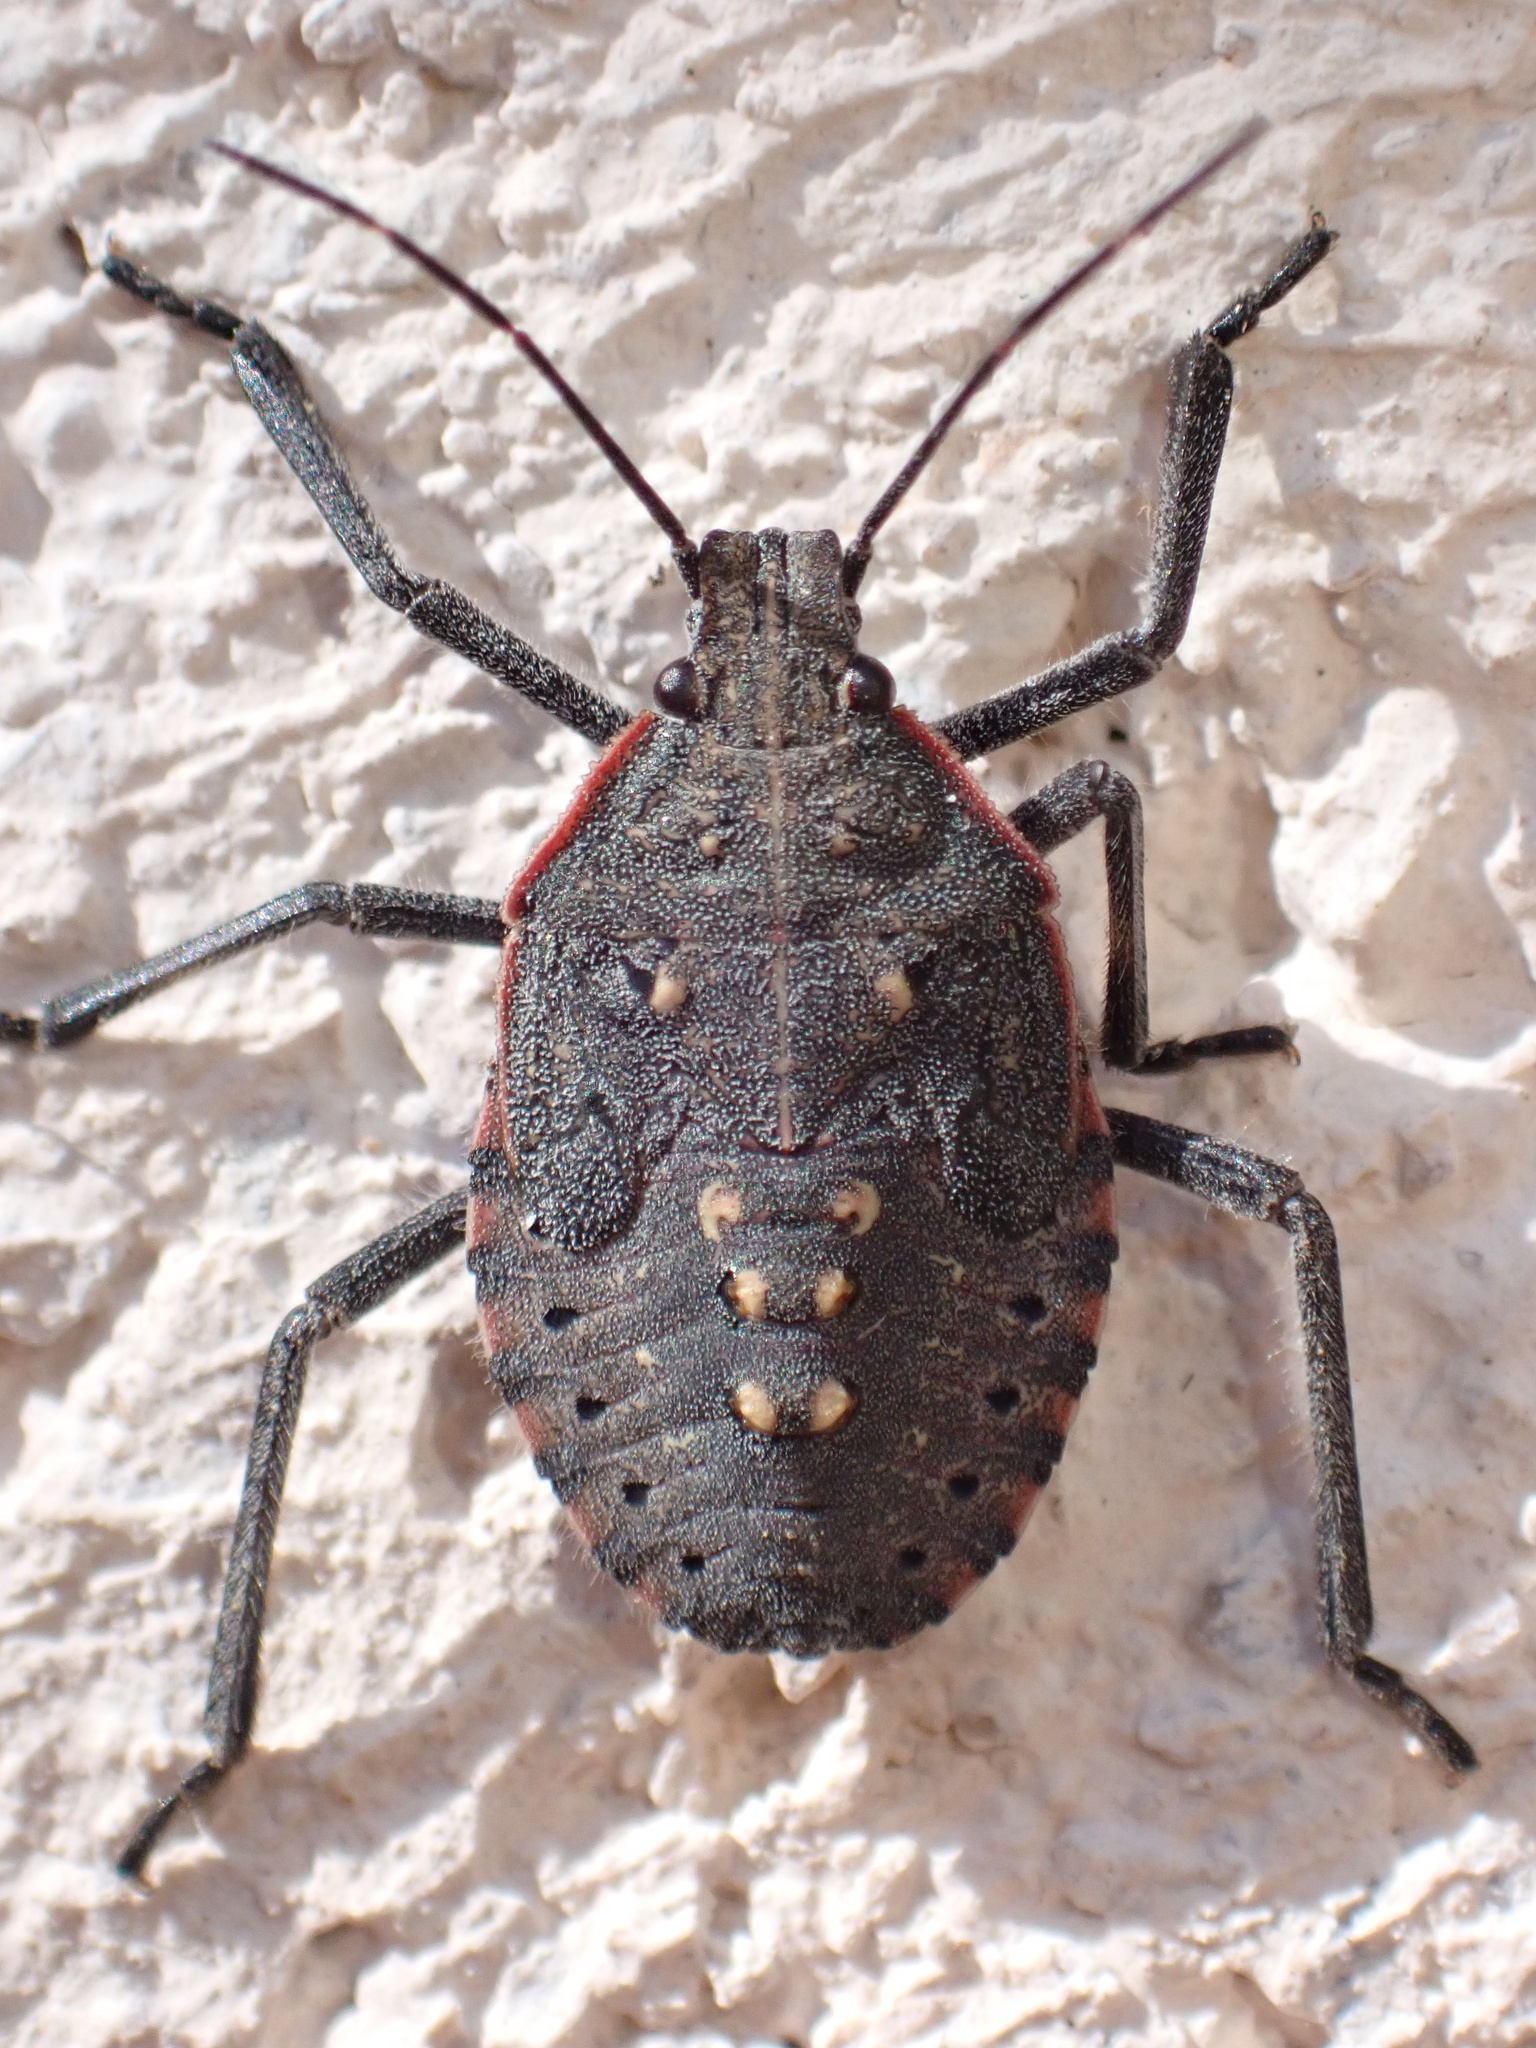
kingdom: Animalia
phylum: Arthropoda
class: Insecta
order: Hemiptera
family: Pentatomidae
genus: Apodiphus
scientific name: Apodiphus amygdali
